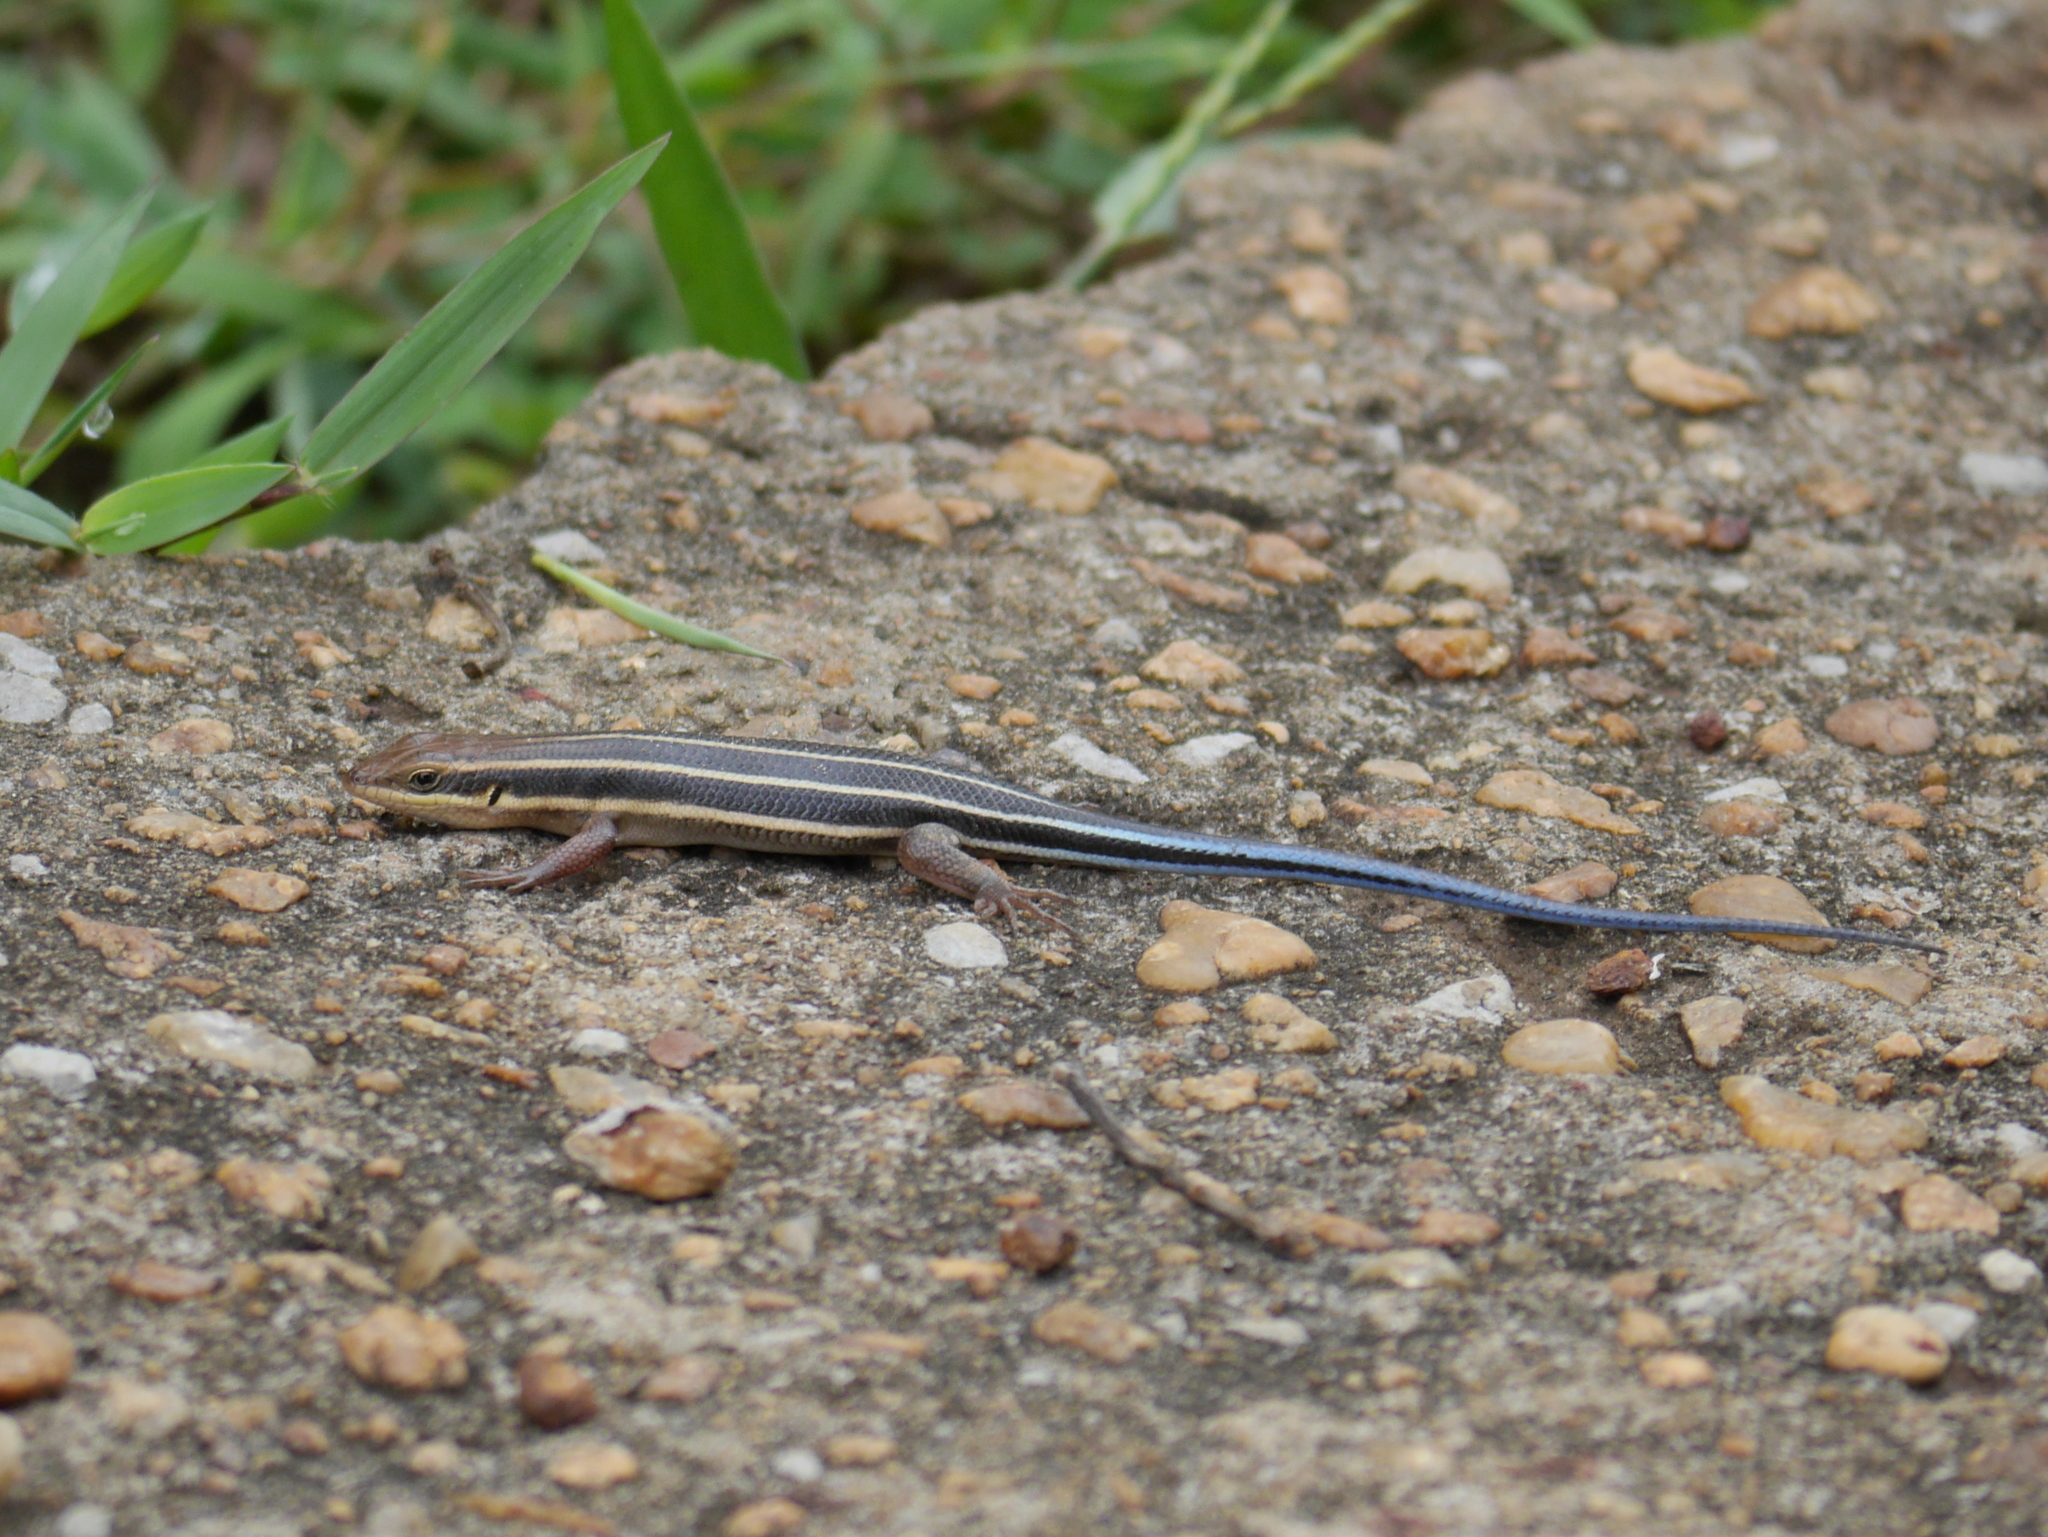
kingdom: Animalia
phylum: Chordata
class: Squamata
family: Scincidae
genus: Trachylepis
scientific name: Trachylepis quinquetaeniata
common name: African five-lined skink
